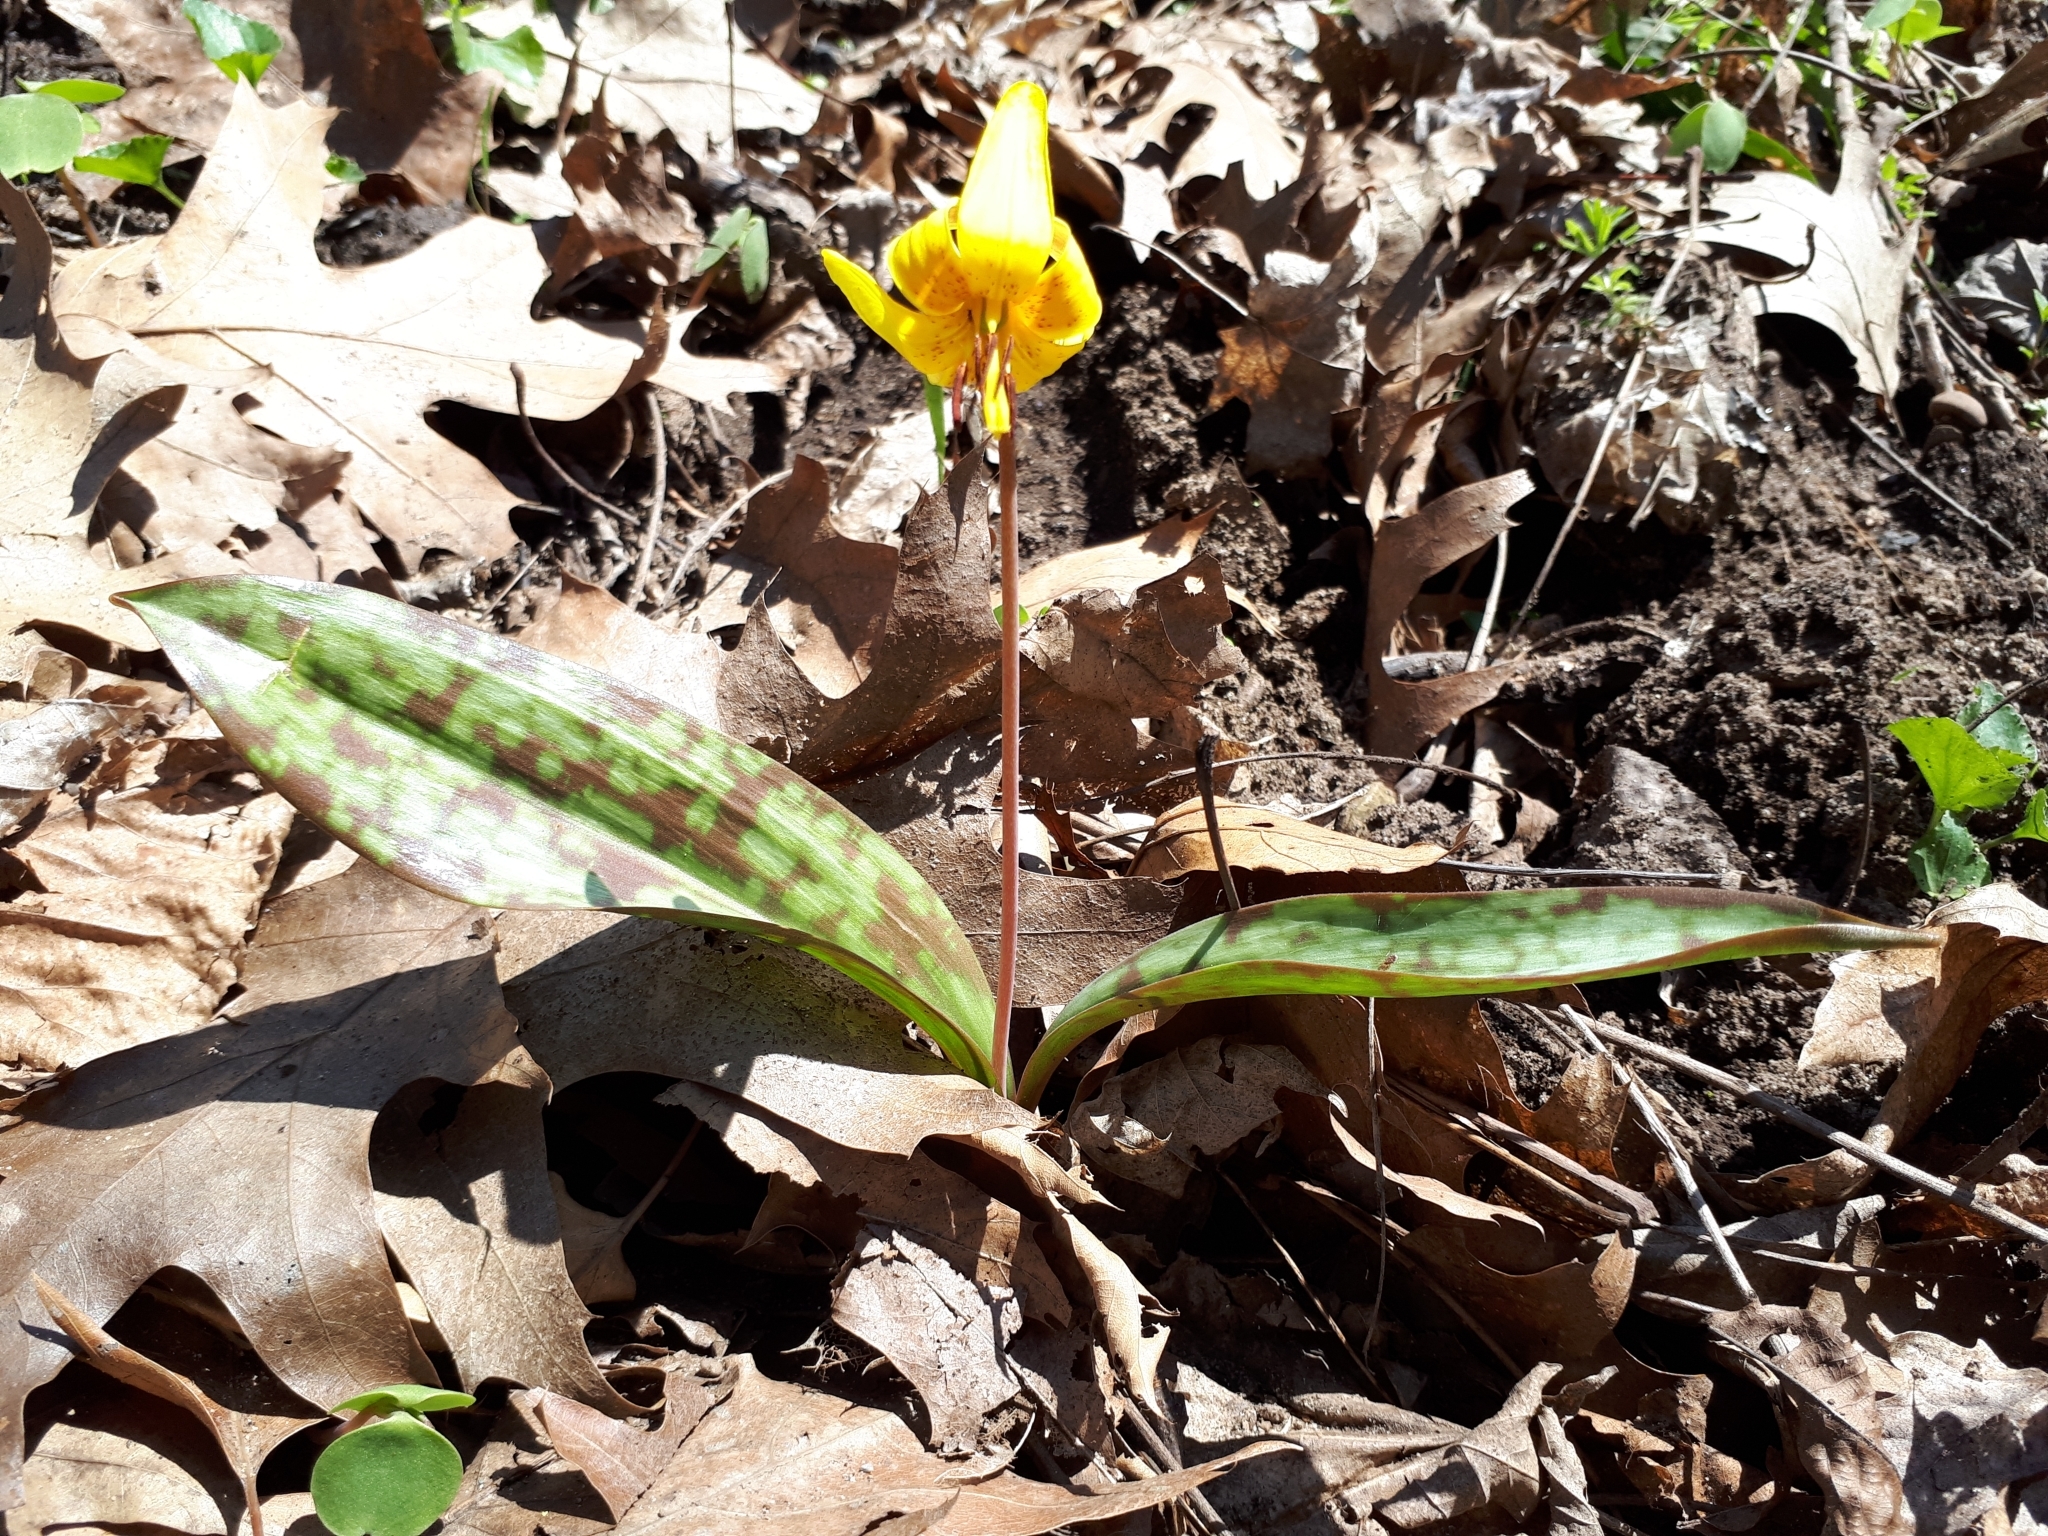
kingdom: Plantae
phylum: Tracheophyta
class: Liliopsida
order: Liliales
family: Liliaceae
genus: Erythronium
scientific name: Erythronium americanum
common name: Yellow adder's-tongue
